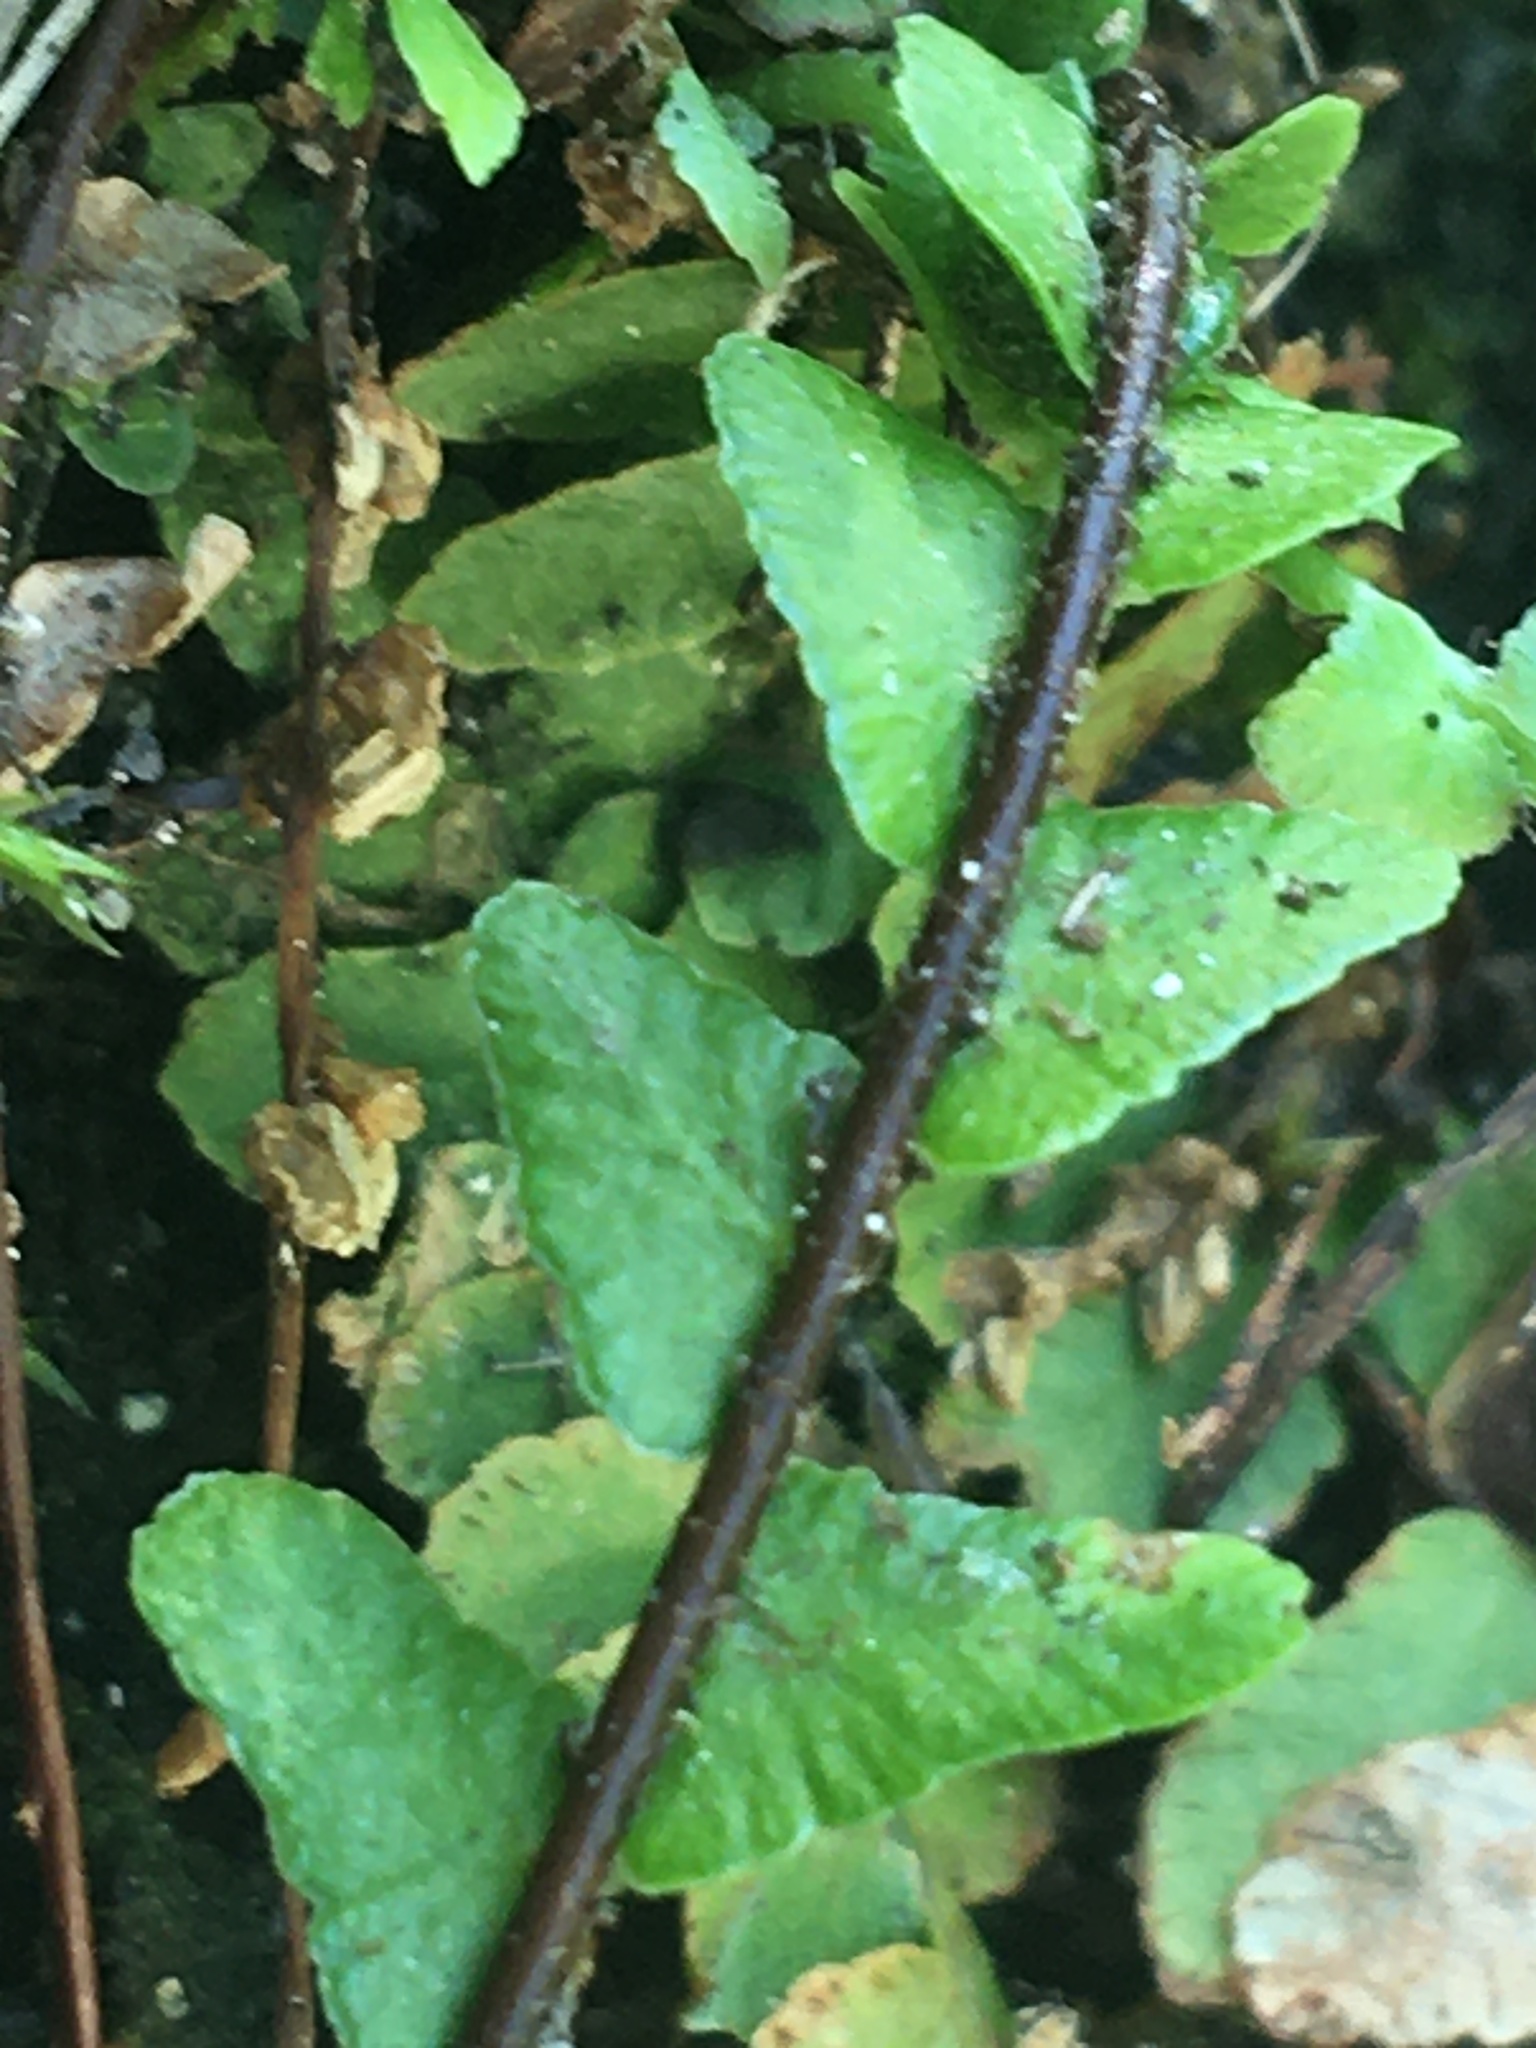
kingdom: Plantae
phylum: Tracheophyta
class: Polypodiopsida
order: Polypodiales
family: Aspleniaceae
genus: Asplenium
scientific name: Asplenium platyneuron
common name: Ebony spleenwort
